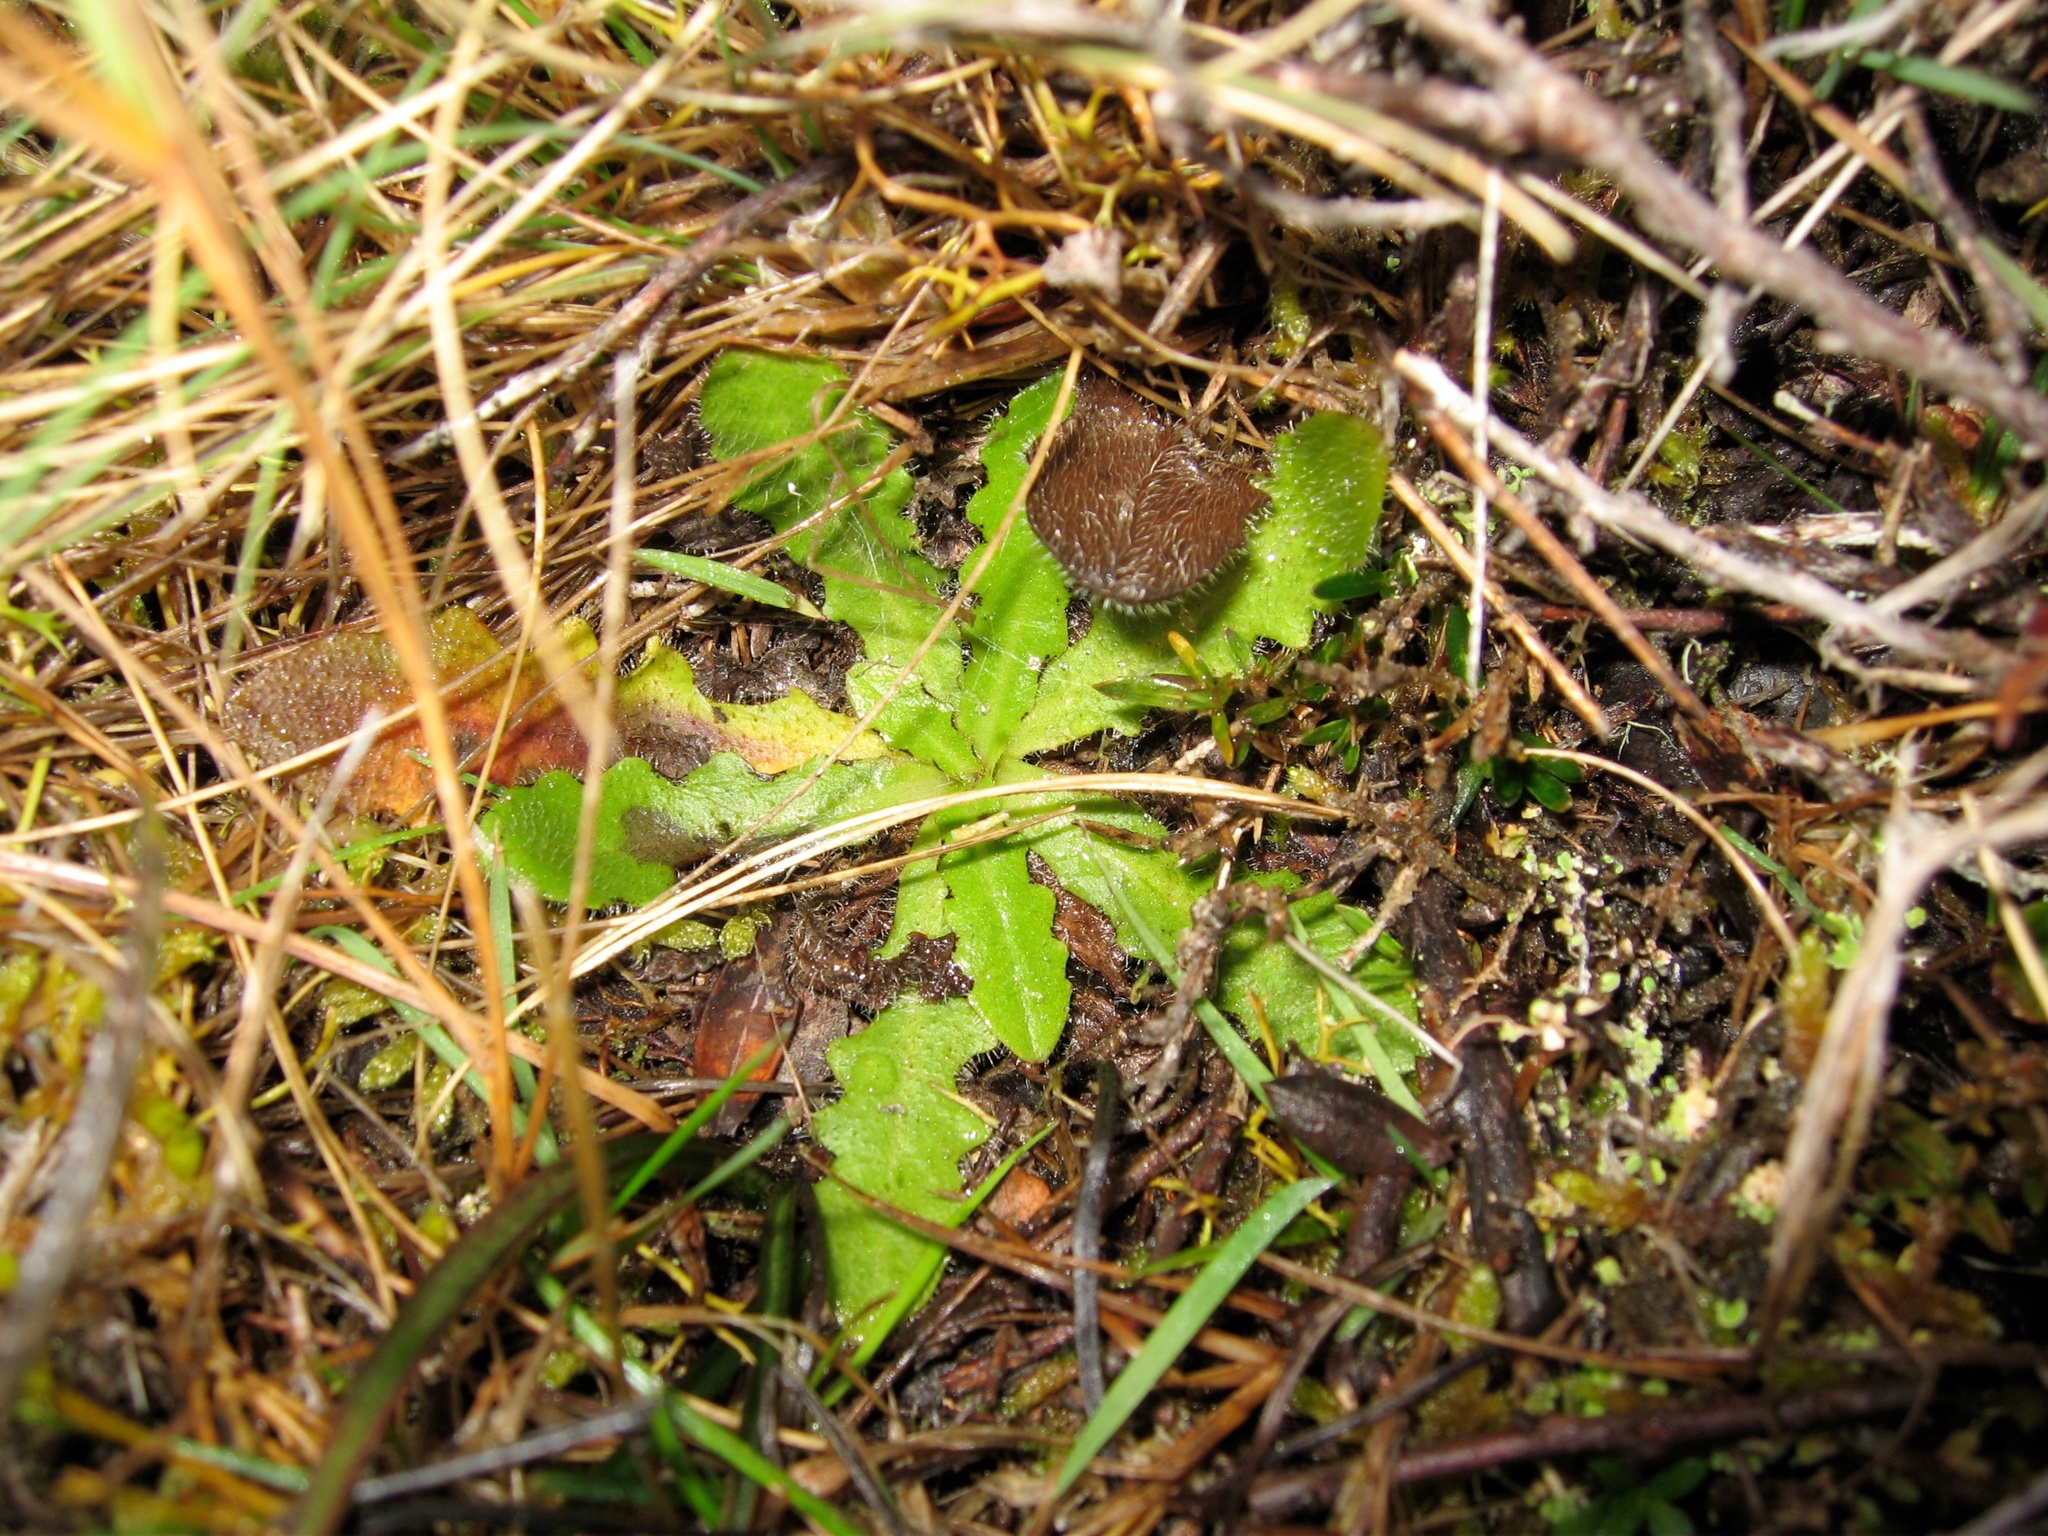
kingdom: Plantae
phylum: Tracheophyta
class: Magnoliopsida
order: Asterales
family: Asteraceae
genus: Hypochaeris
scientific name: Hypochaeris radicata
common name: Flatweed
